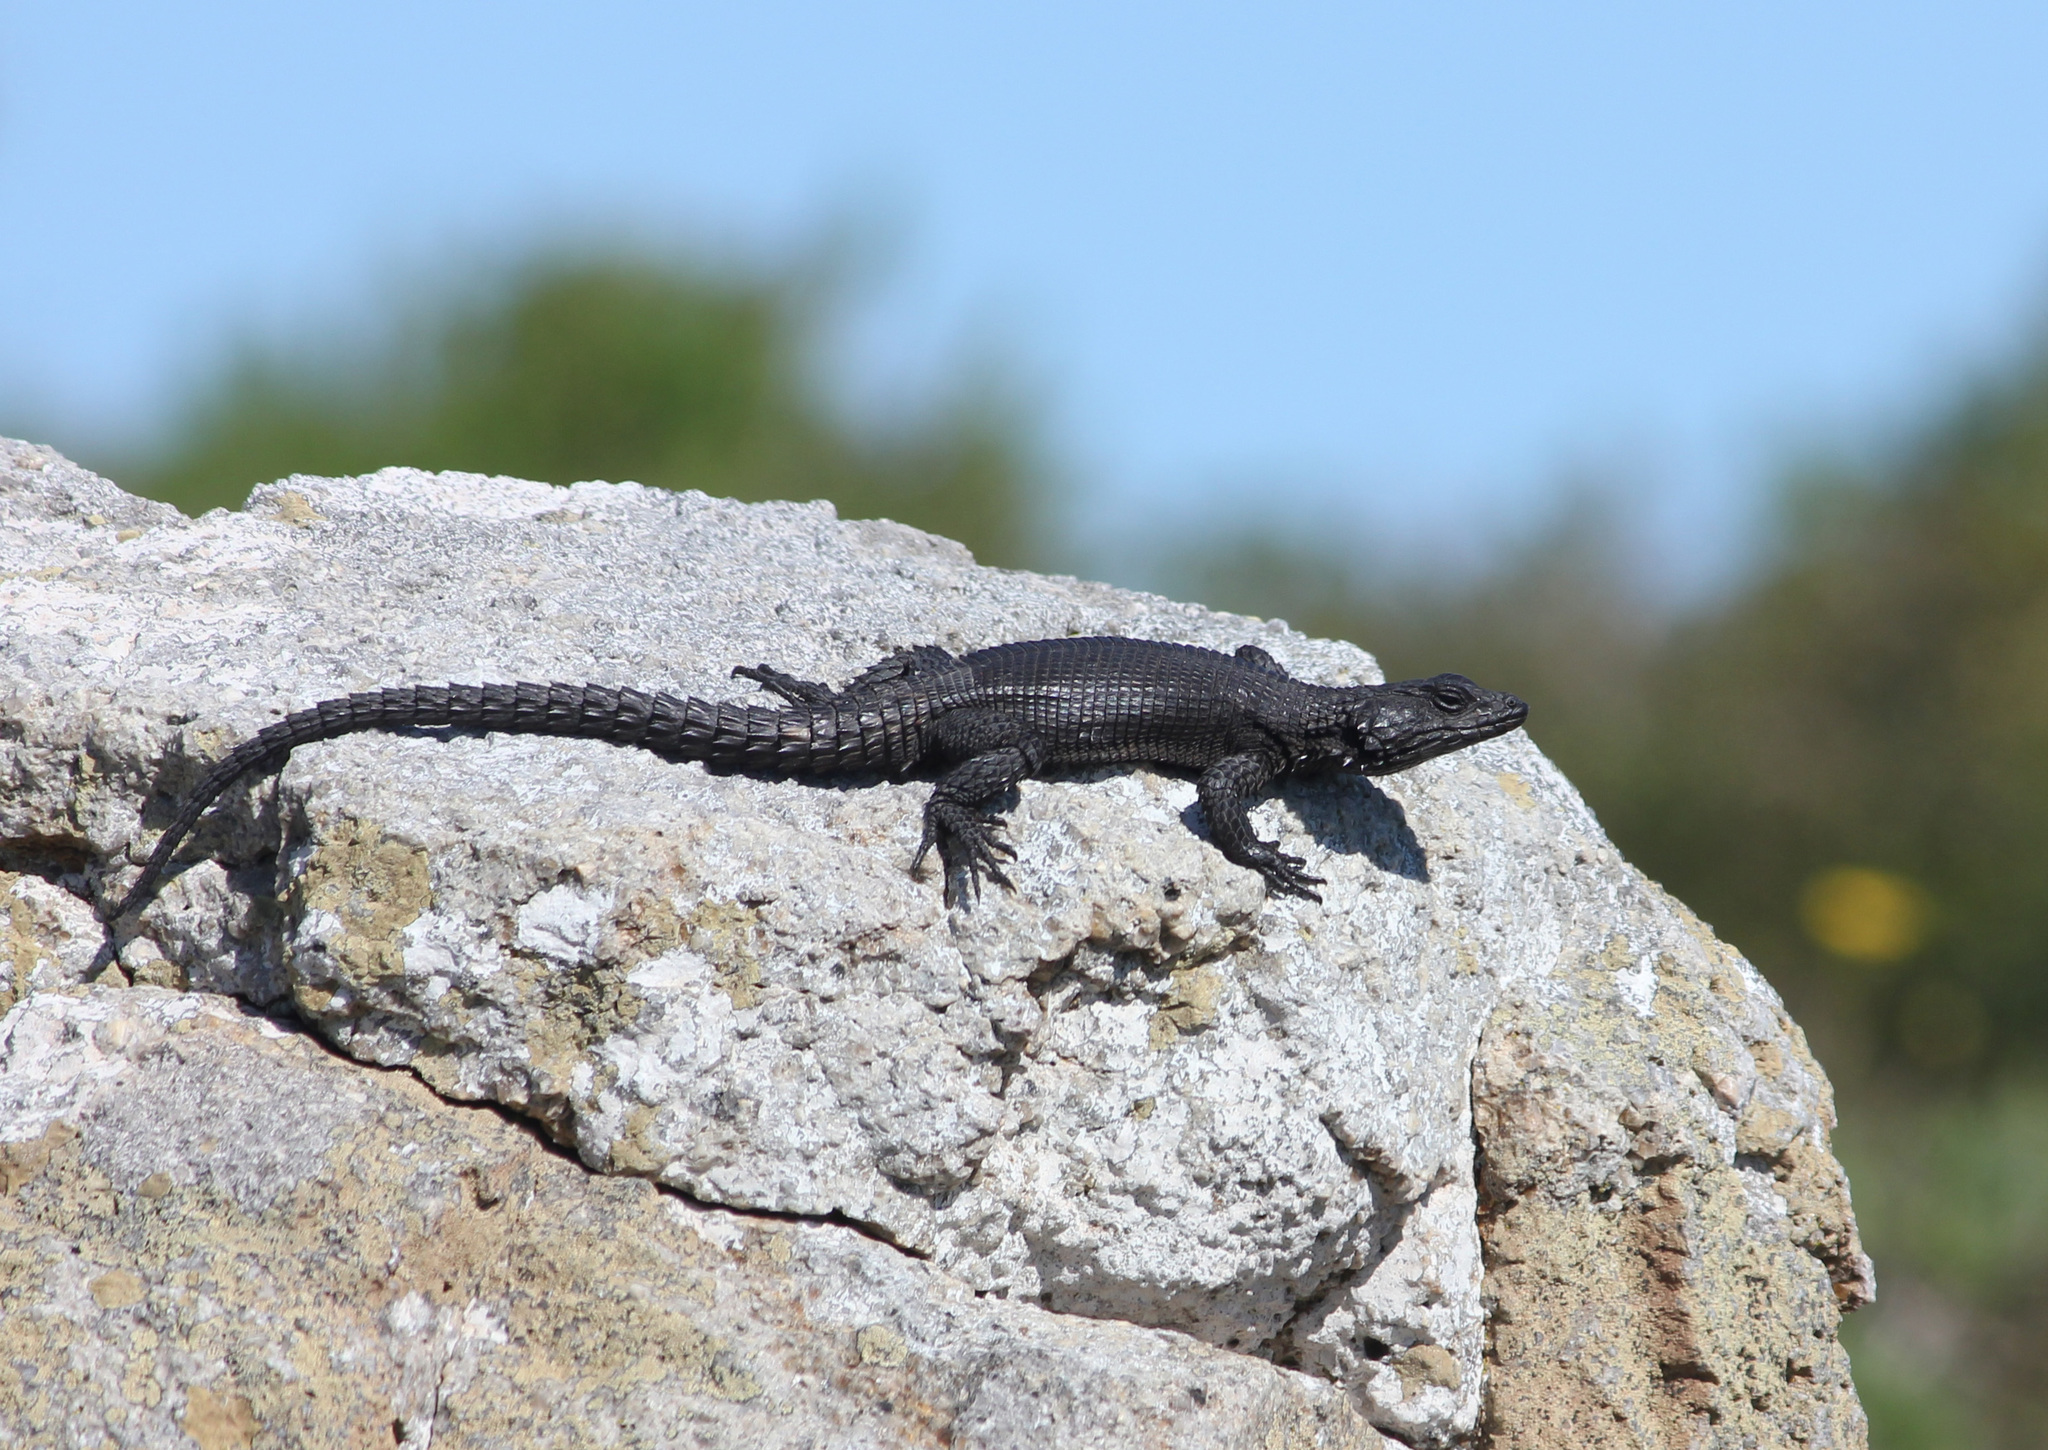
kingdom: Animalia
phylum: Chordata
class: Squamata
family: Cordylidae
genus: Karusasaurus
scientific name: Karusasaurus polyzonus
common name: Karoo girdled lizard
